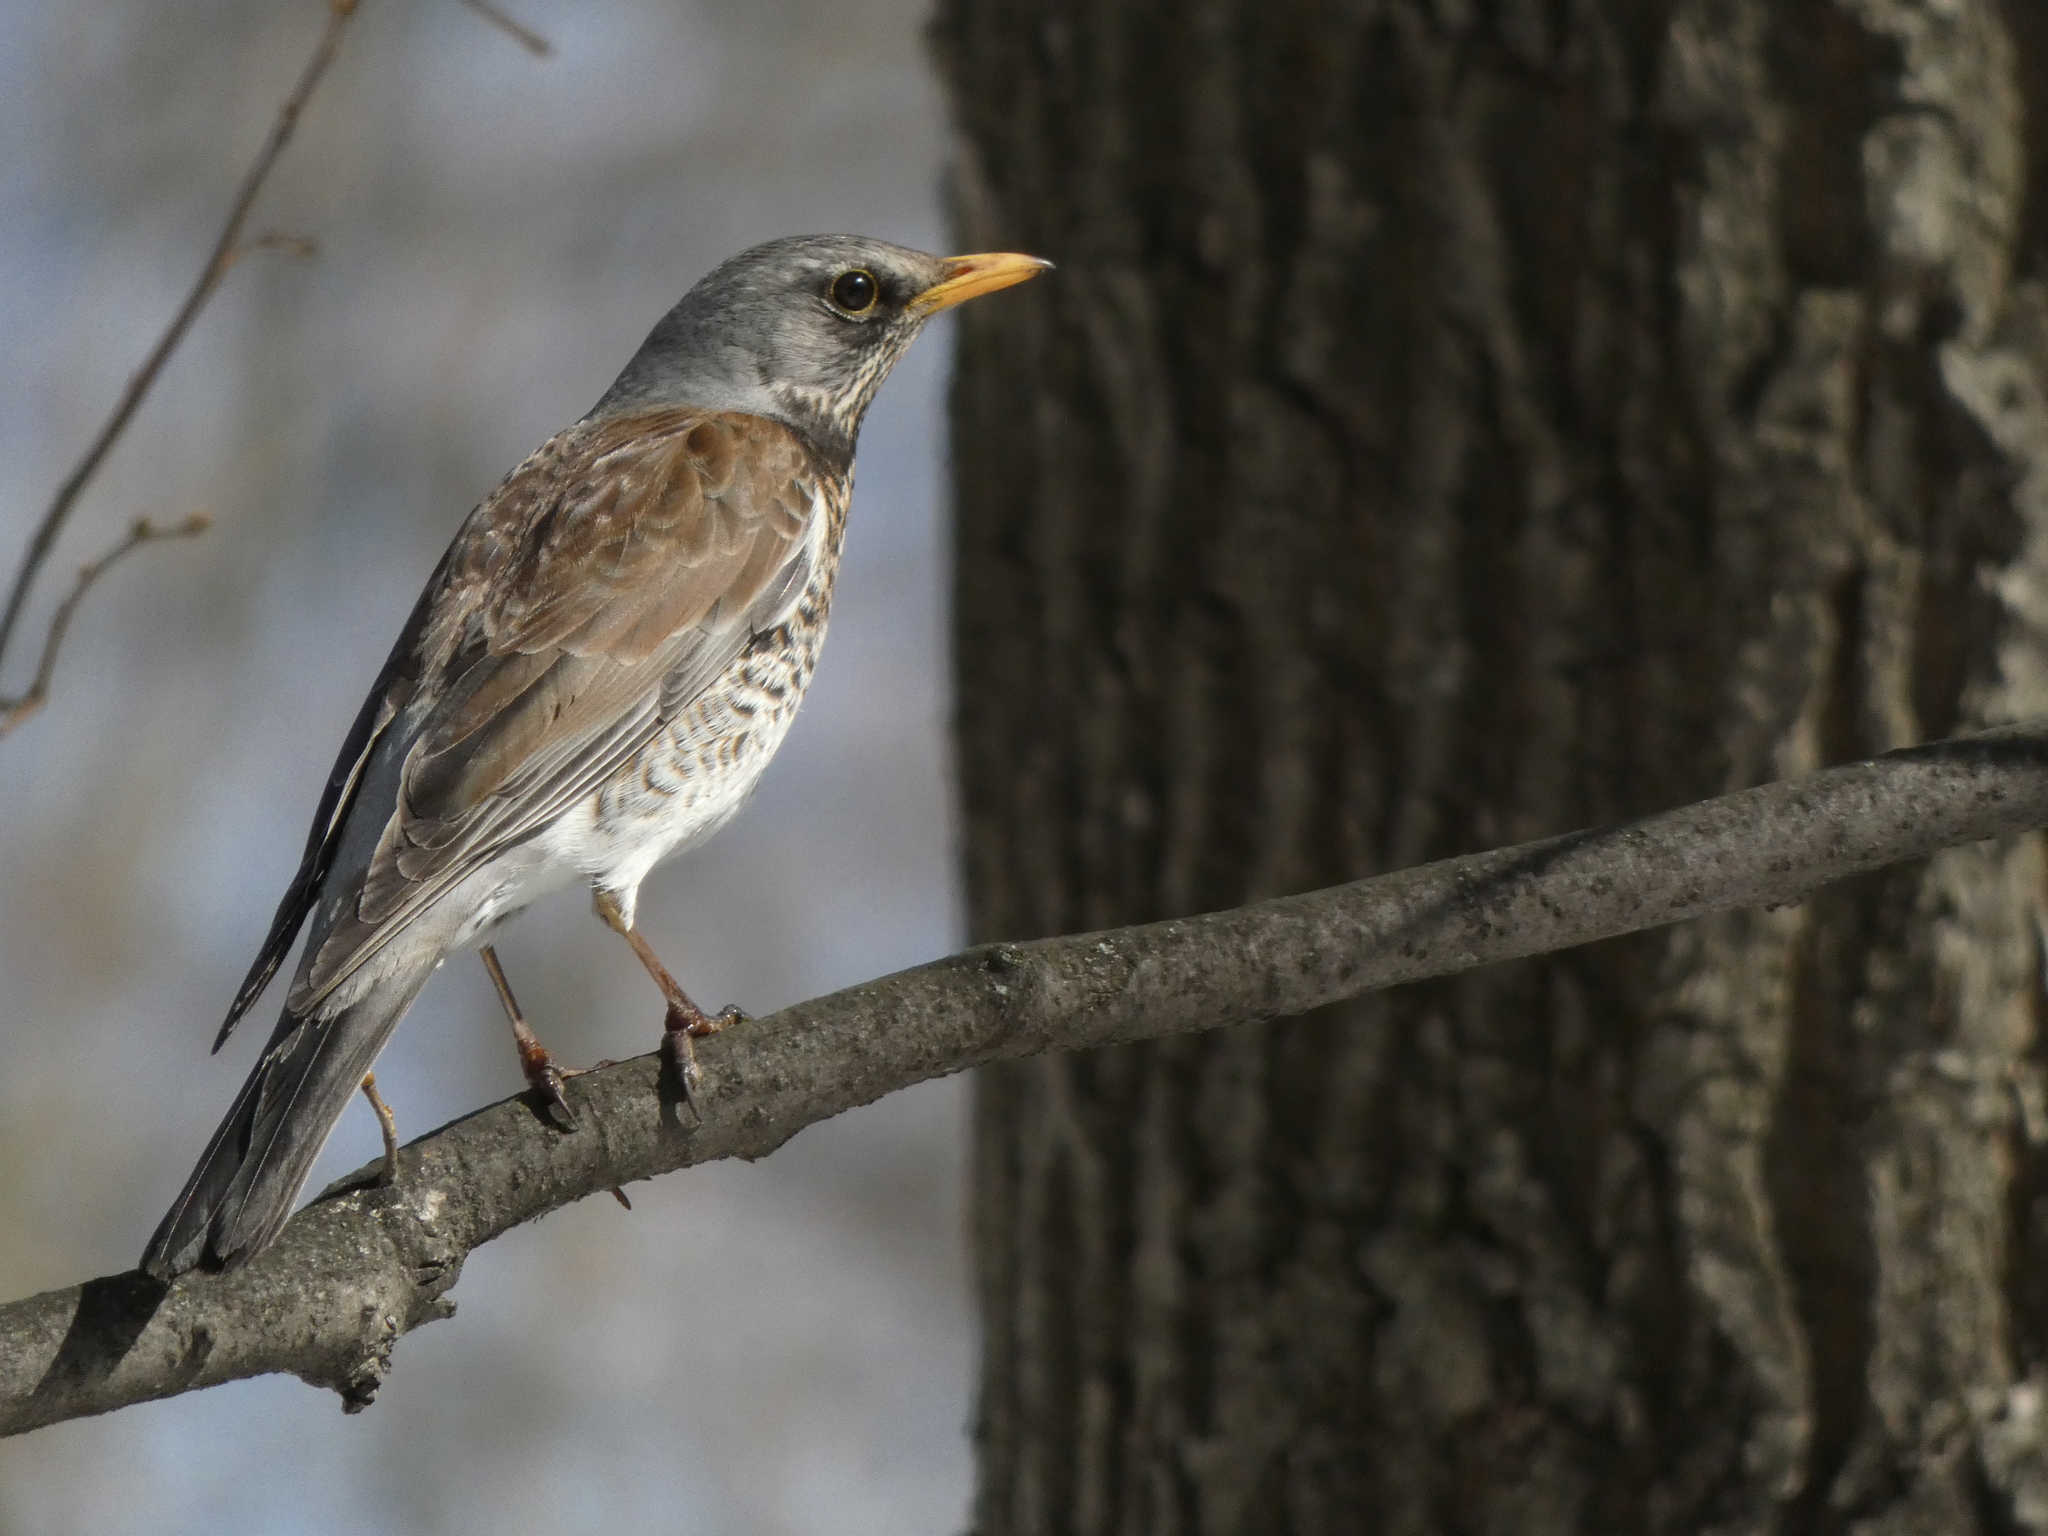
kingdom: Animalia
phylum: Chordata
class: Aves
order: Passeriformes
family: Turdidae
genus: Turdus
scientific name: Turdus pilaris
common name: Fieldfare
